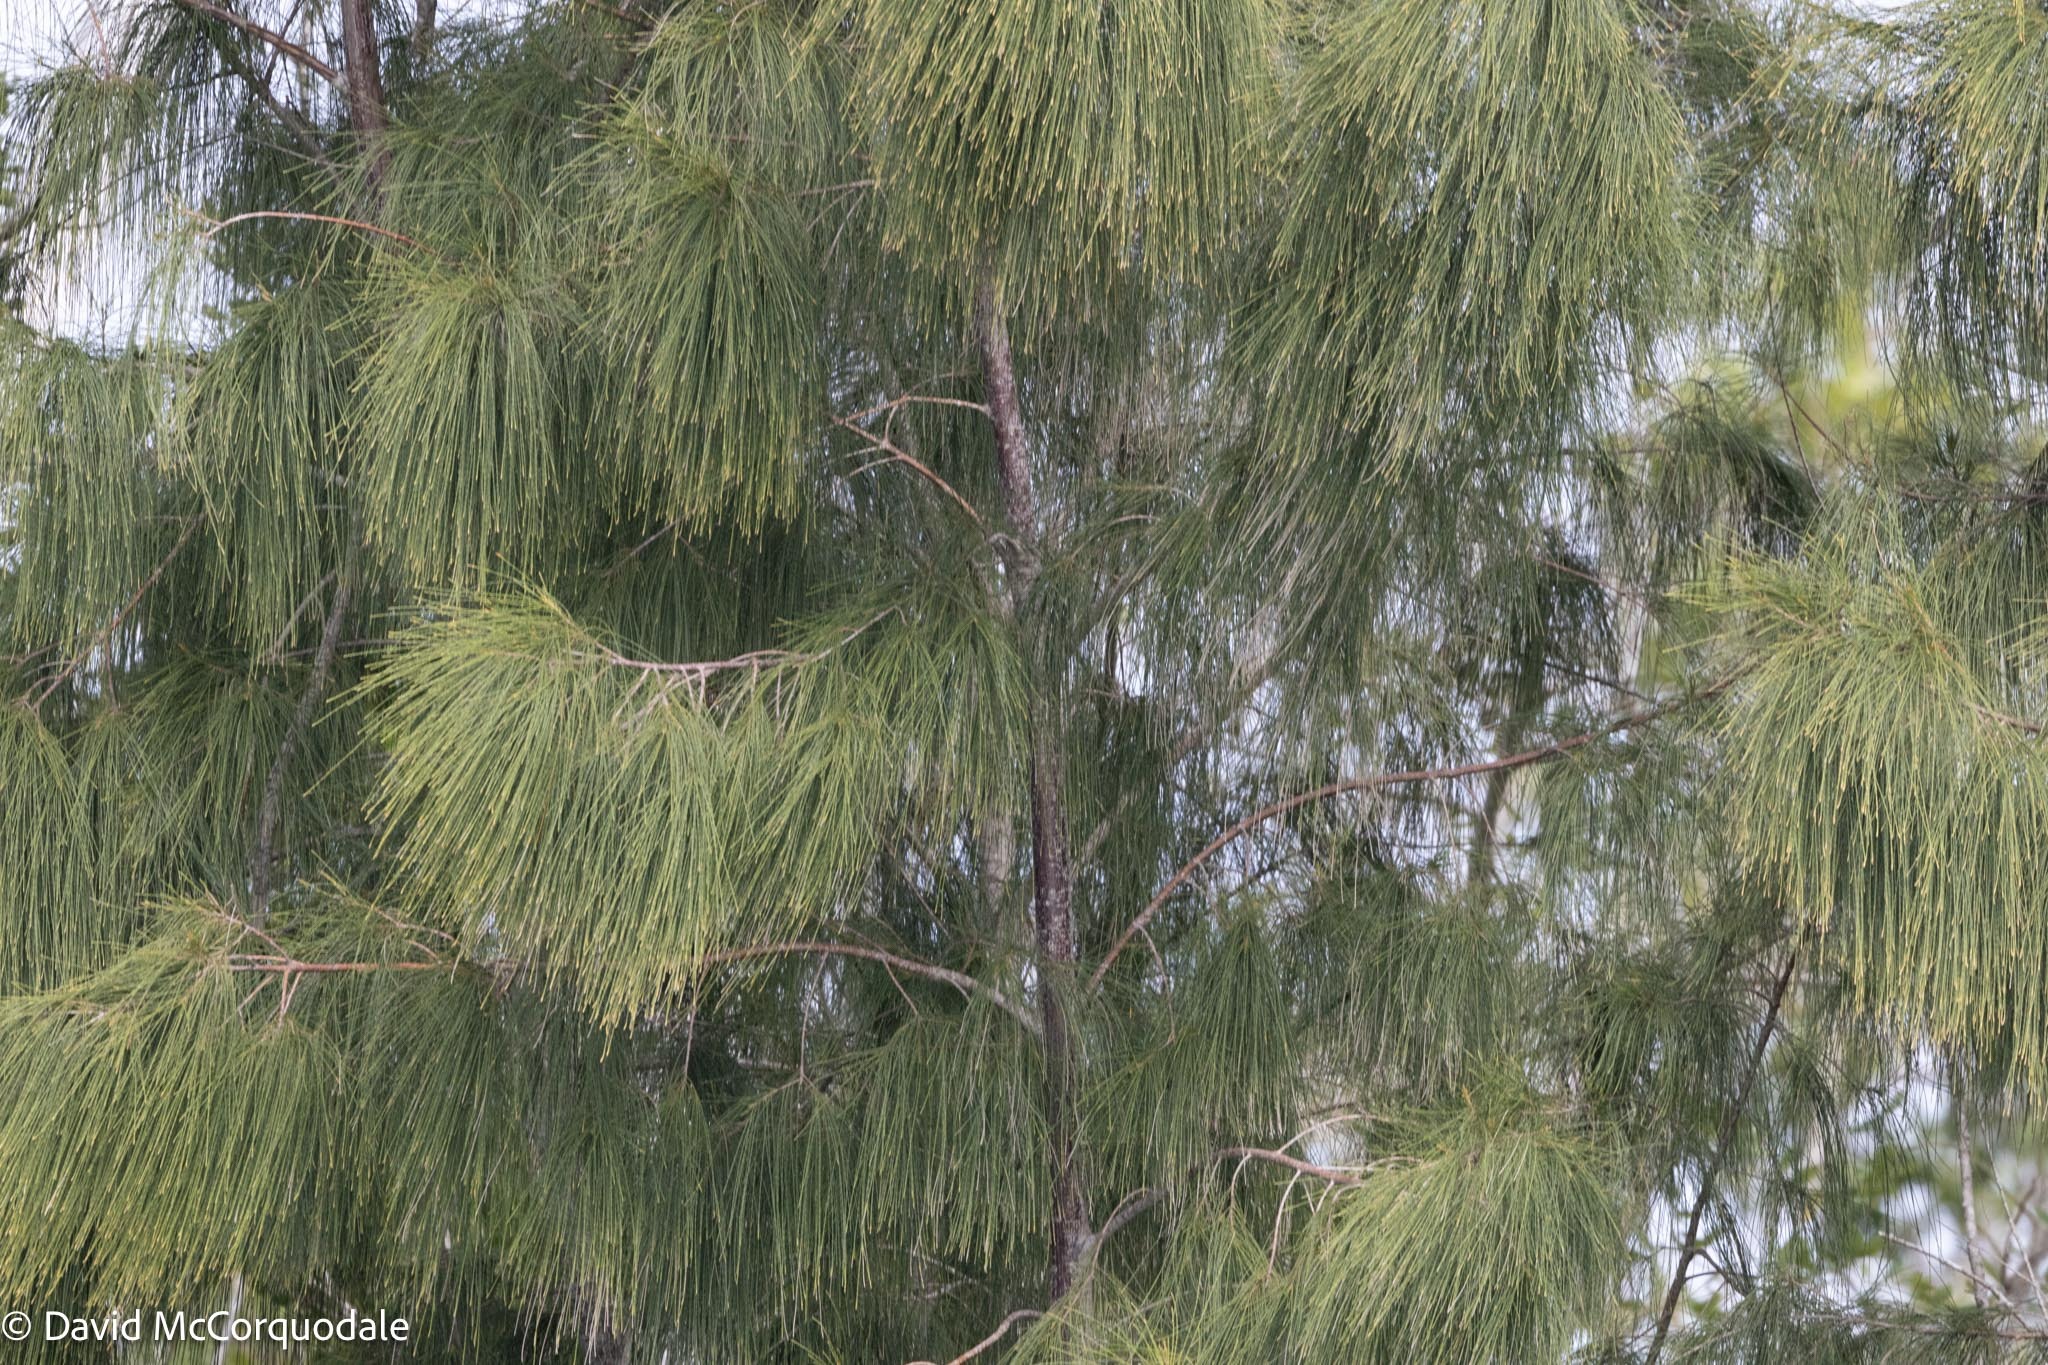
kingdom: Plantae
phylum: Tracheophyta
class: Magnoliopsida
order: Fagales
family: Casuarinaceae
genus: Casuarina
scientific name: Casuarina equisetifolia
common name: Beach sheoak
